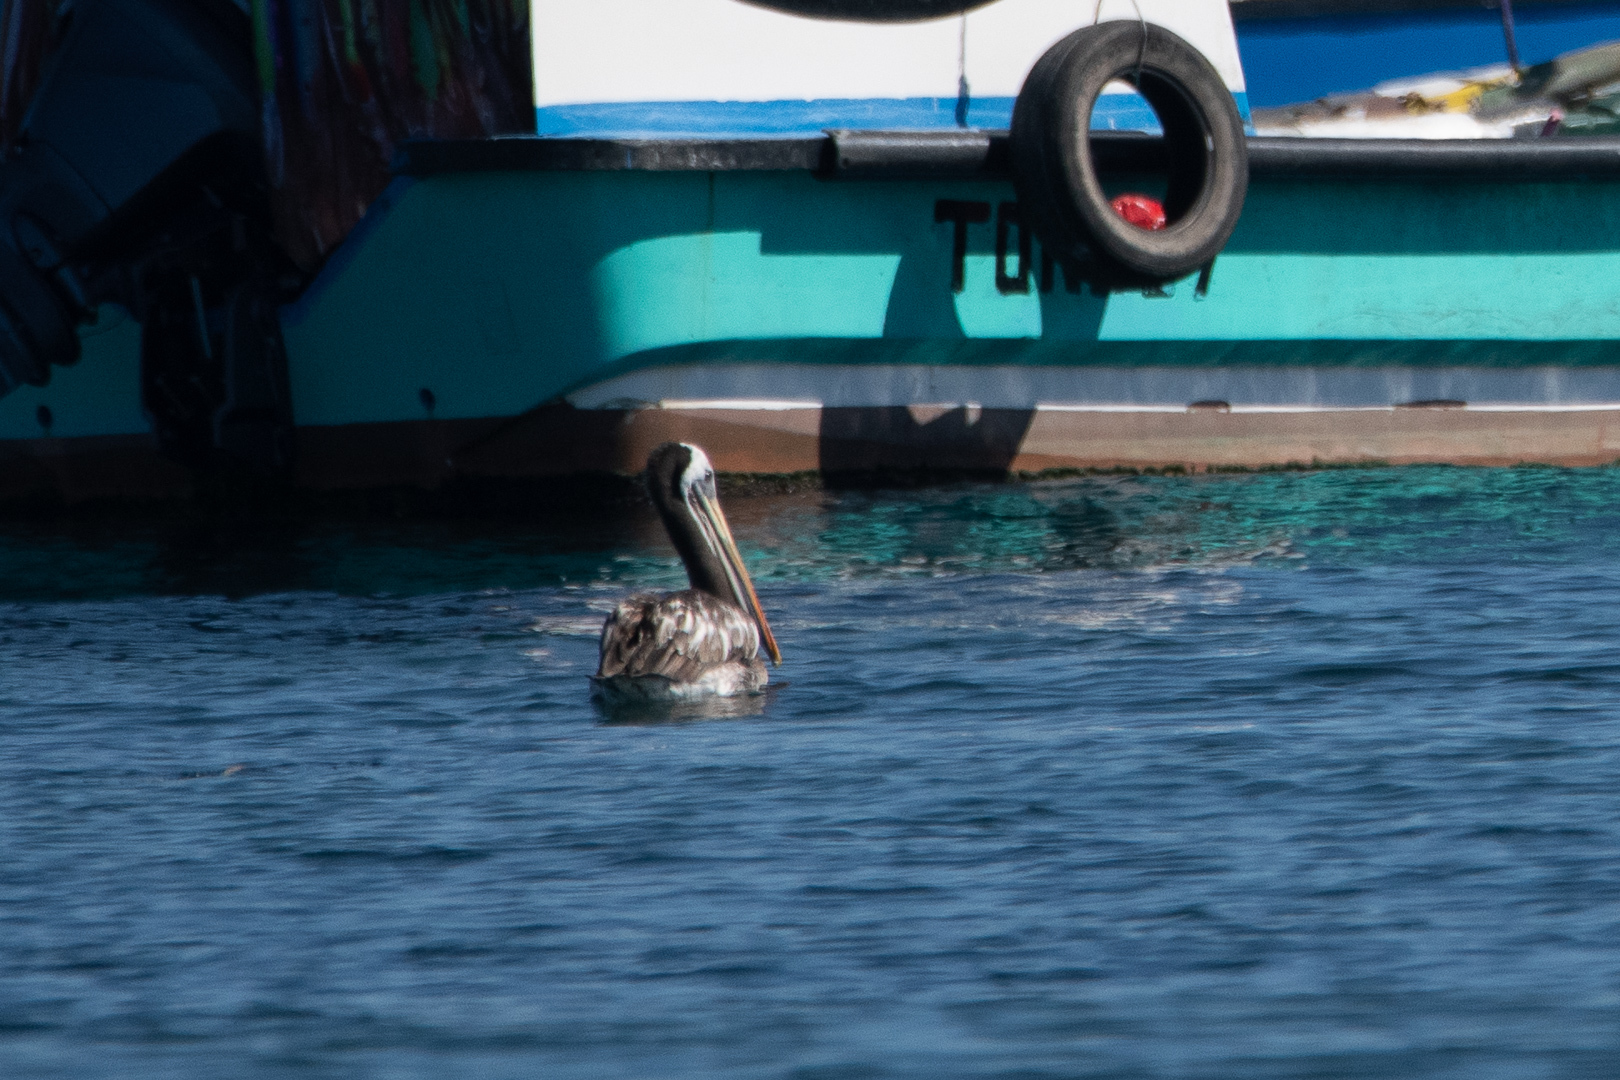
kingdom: Animalia
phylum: Chordata
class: Aves
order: Pelecaniformes
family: Pelecanidae
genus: Pelecanus
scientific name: Pelecanus thagus
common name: Peruvian pelican
